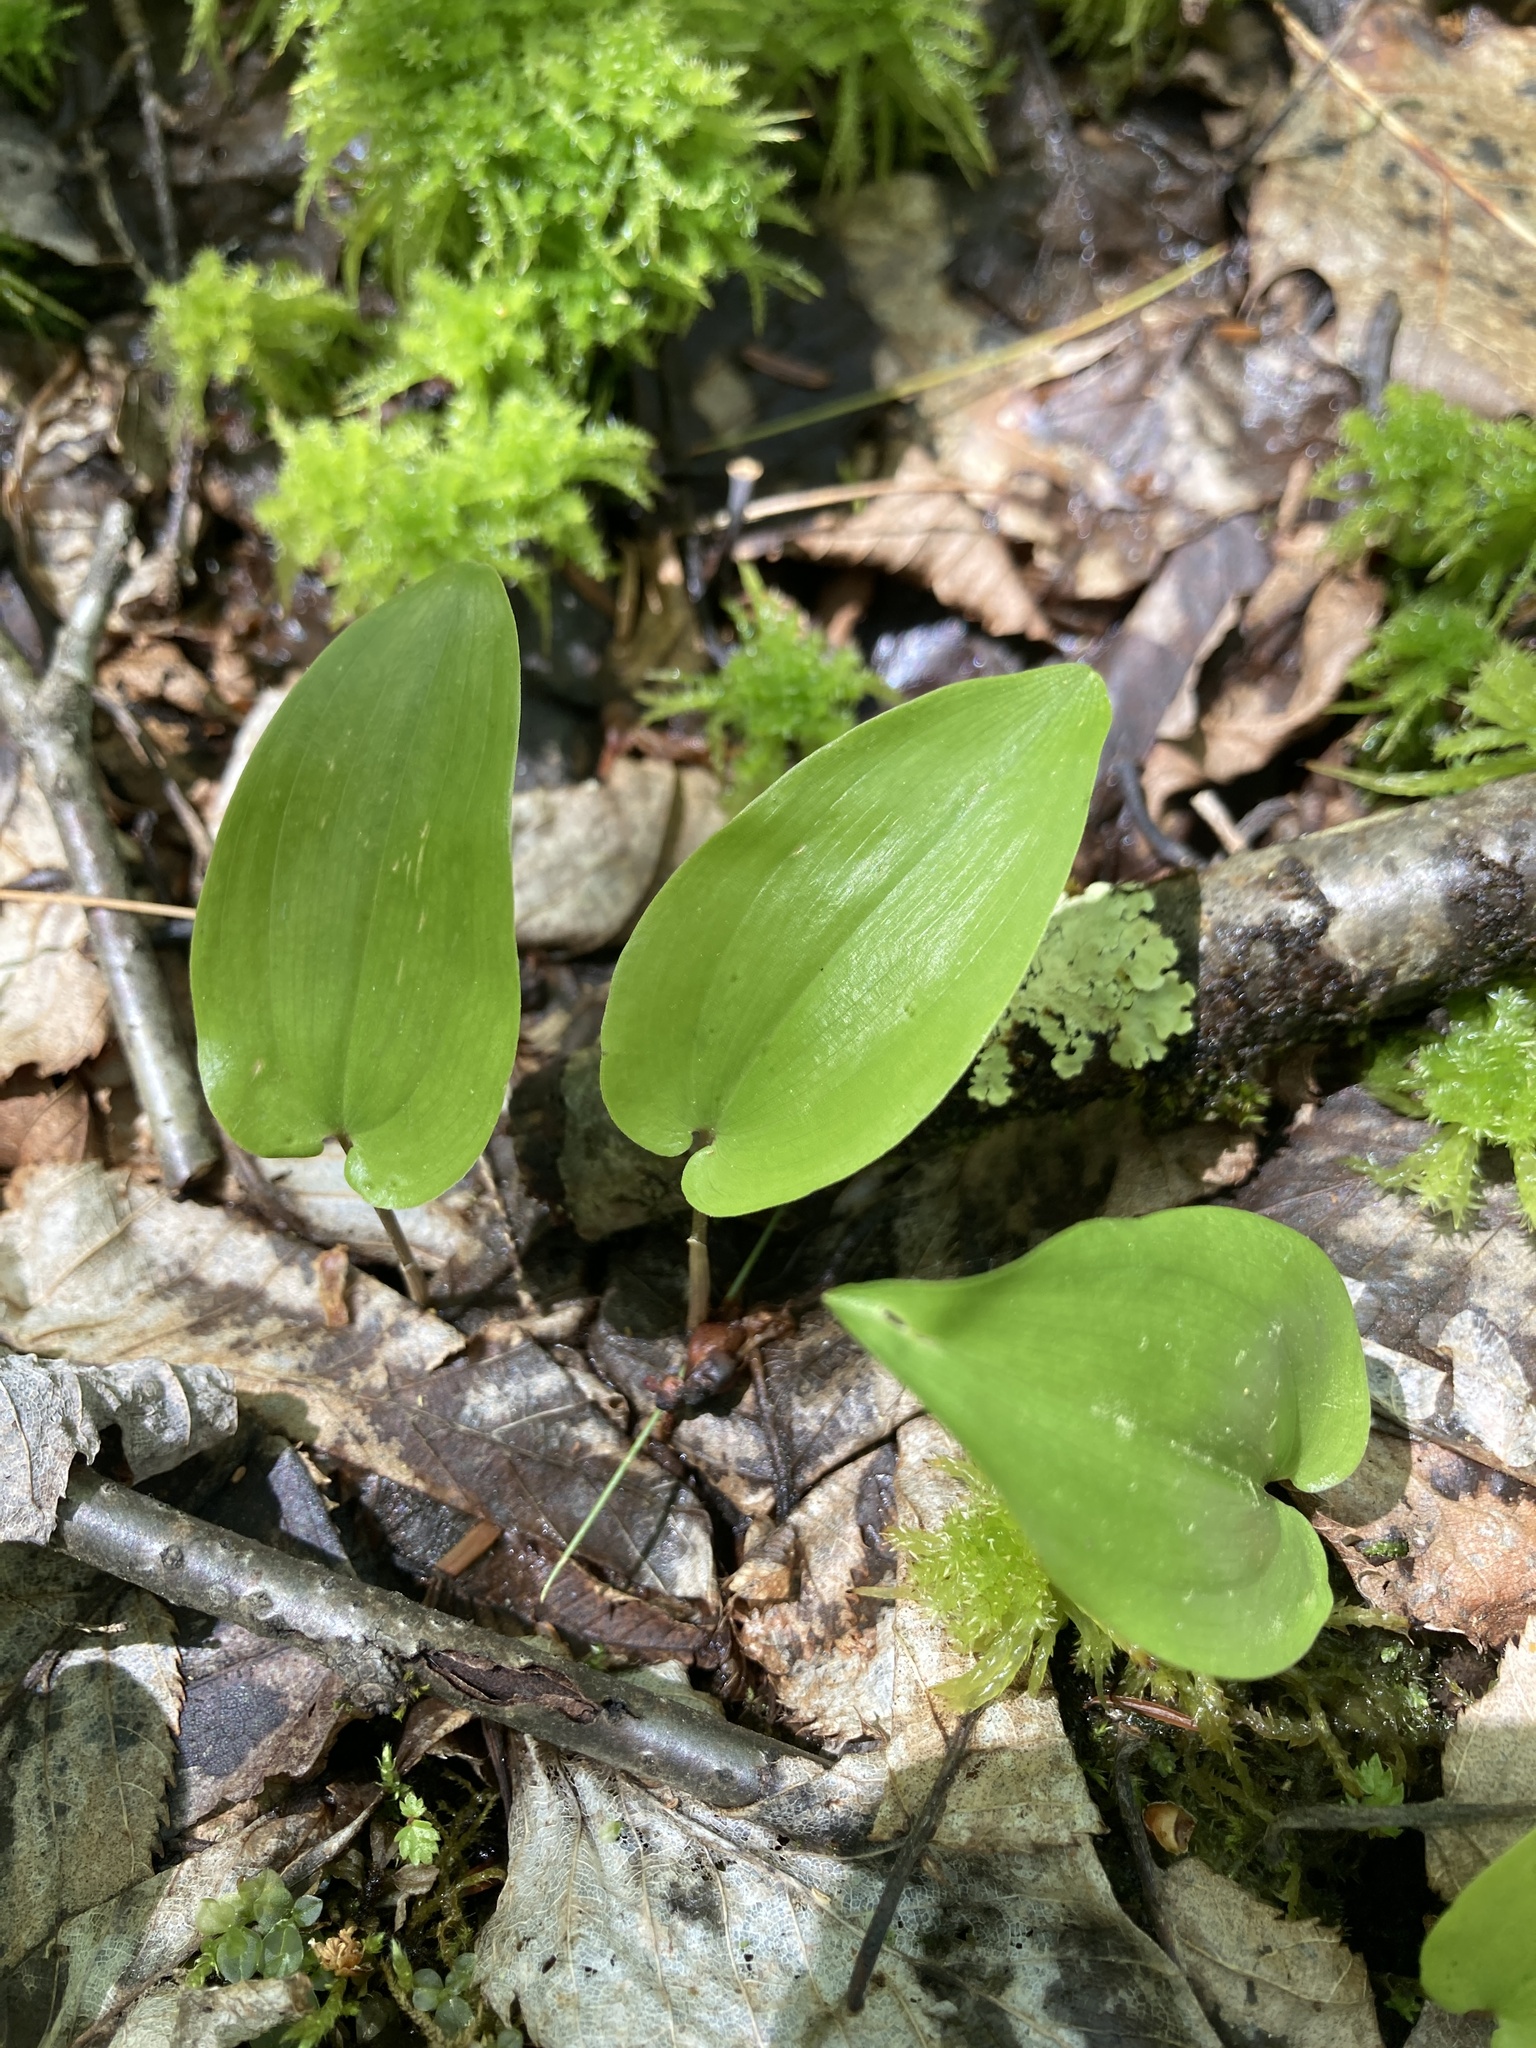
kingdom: Plantae
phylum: Tracheophyta
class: Liliopsida
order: Asparagales
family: Asparagaceae
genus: Maianthemum
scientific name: Maianthemum canadense
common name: False lily-of-the-valley
